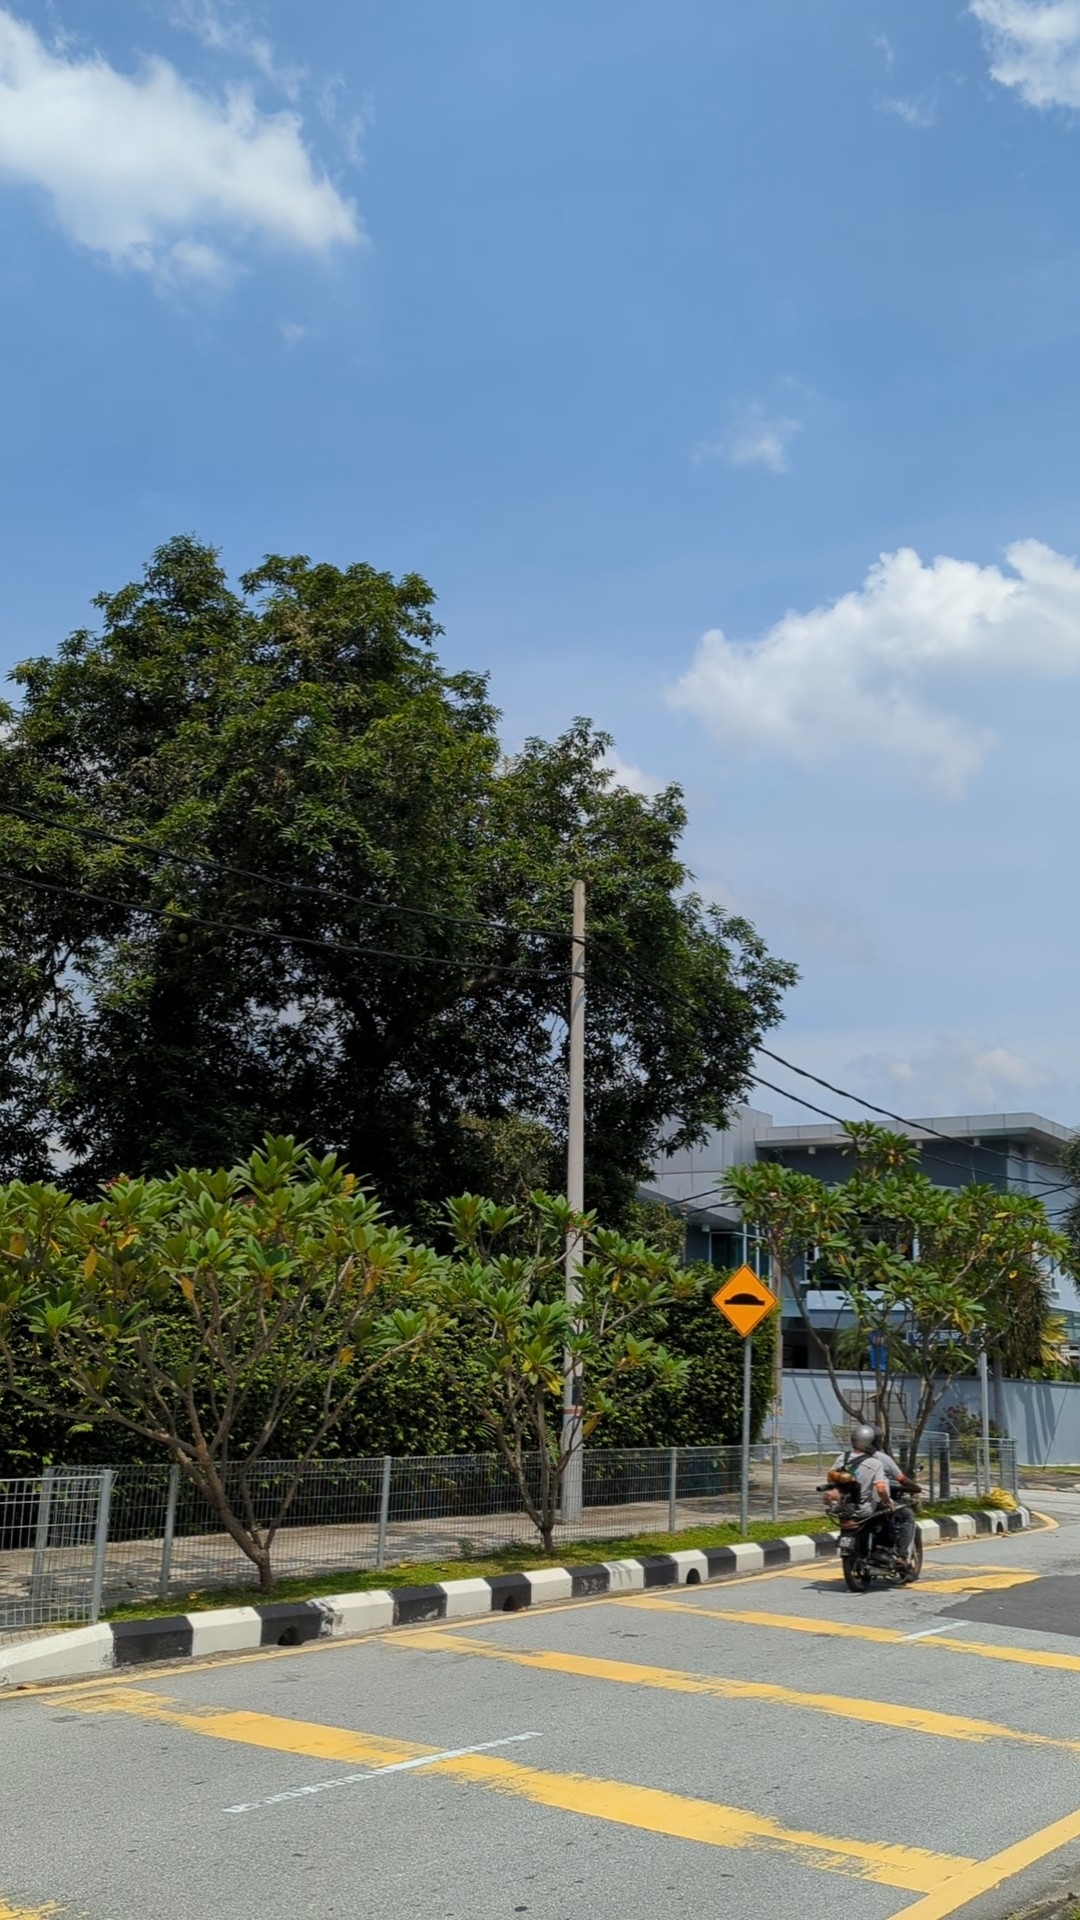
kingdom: Animalia
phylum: Chordata
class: Aves
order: Cuculiformes
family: Cuculidae
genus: Eudynamys
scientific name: Eudynamys scolopaceus
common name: Asian koel
